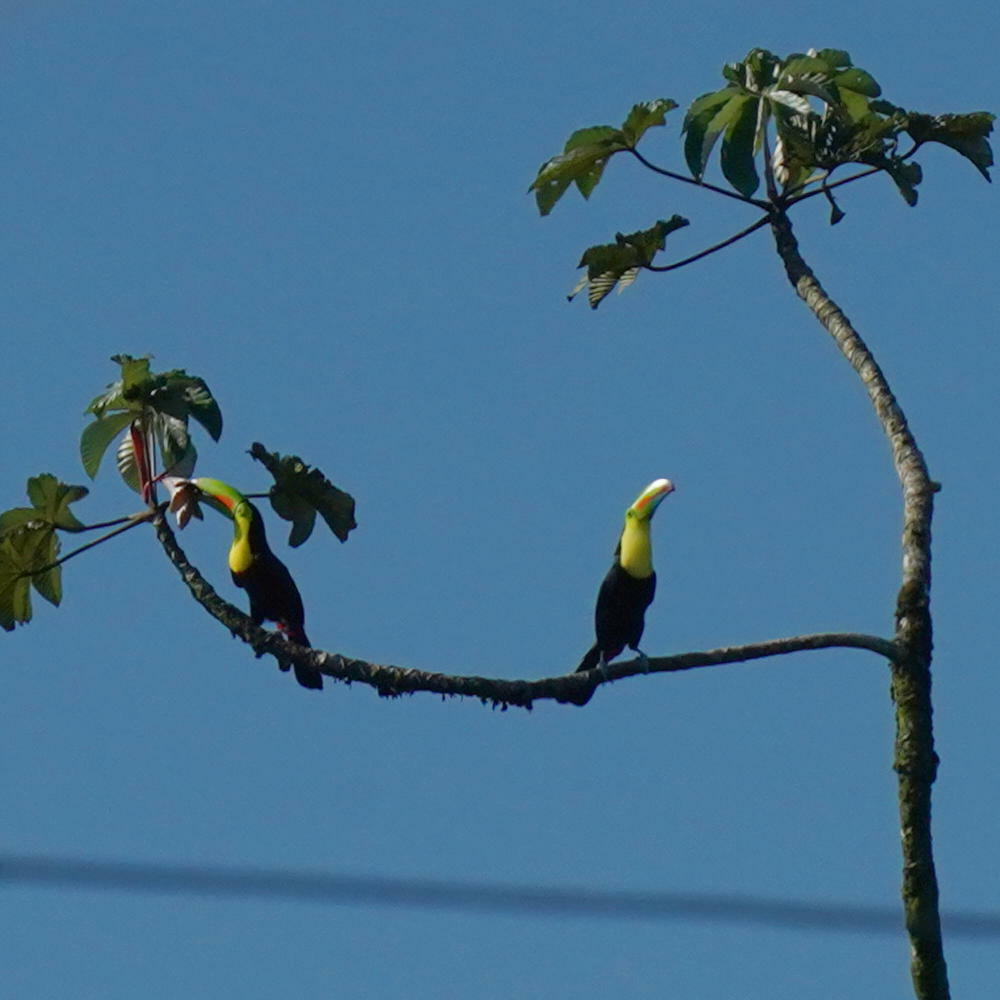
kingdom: Animalia
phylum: Chordata
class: Aves
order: Piciformes
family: Ramphastidae
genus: Ramphastos
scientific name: Ramphastos sulfuratus
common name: Keel-billed toucan
